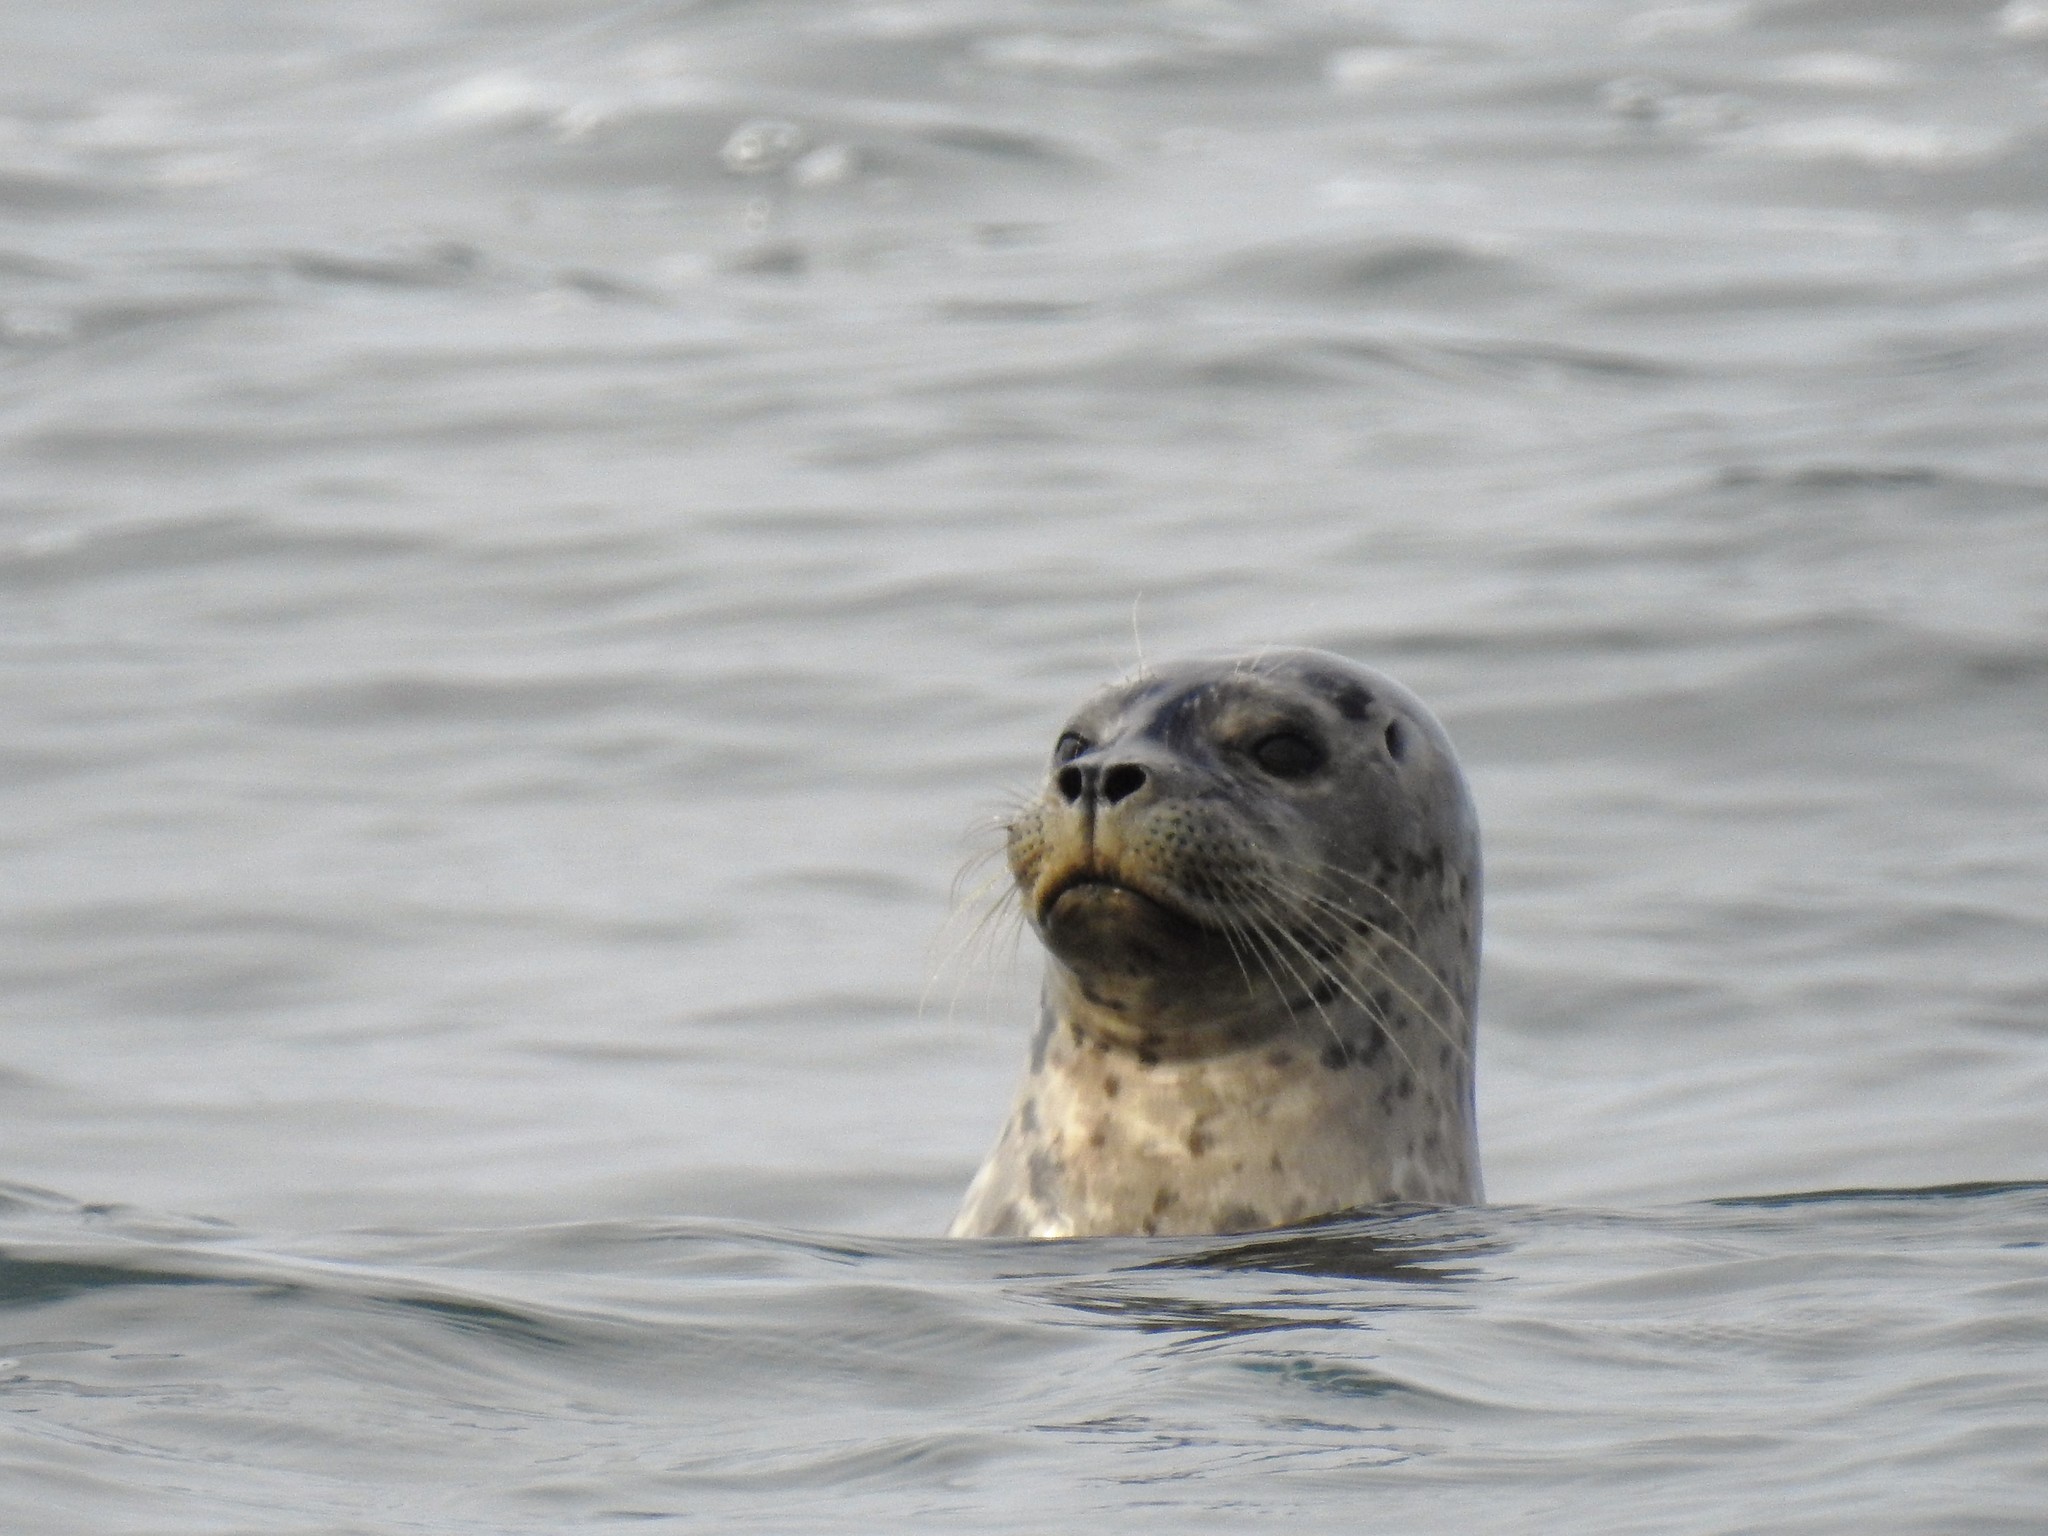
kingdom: Animalia
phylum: Chordata
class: Mammalia
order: Carnivora
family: Phocidae
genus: Phoca
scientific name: Phoca vitulina
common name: Harbor seal
